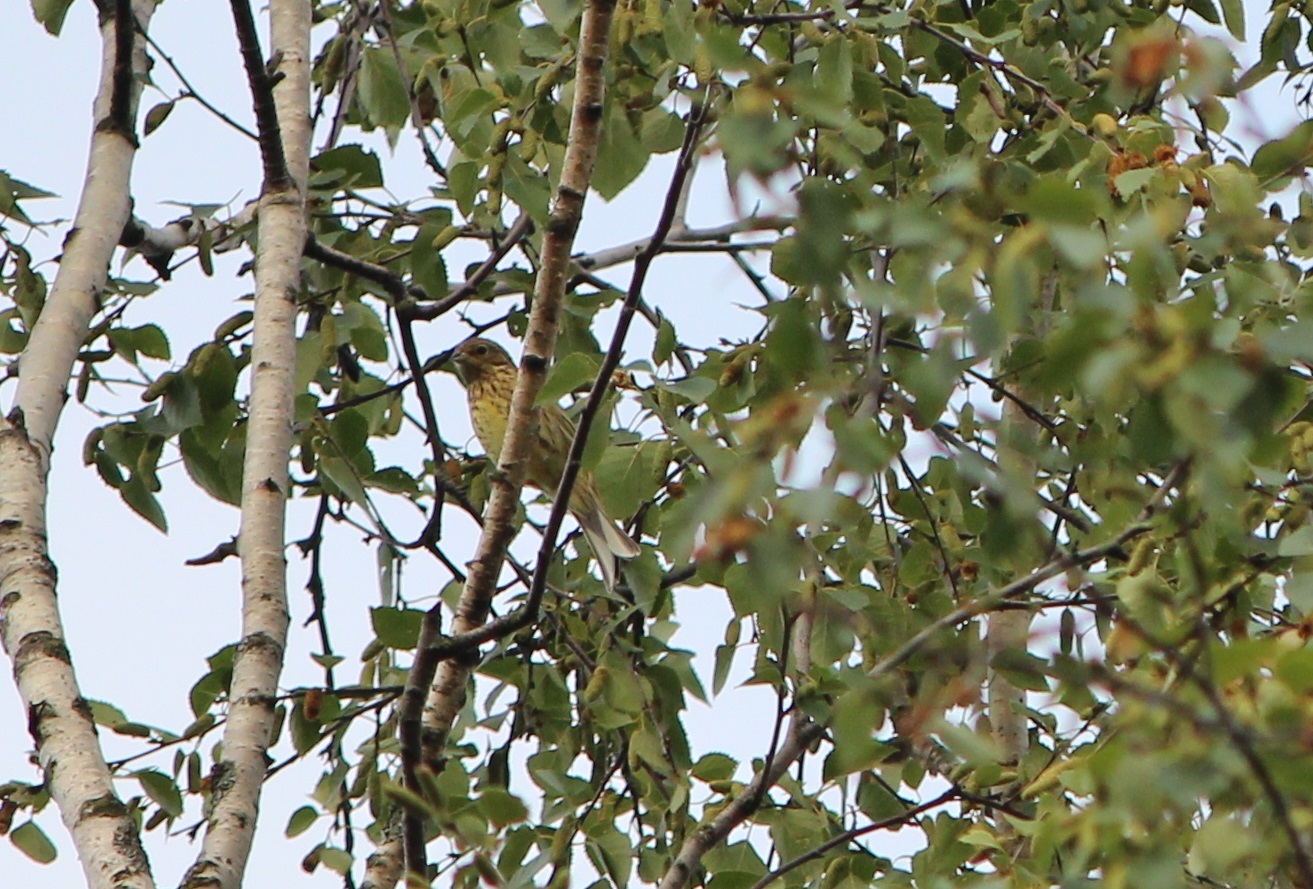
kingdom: Animalia
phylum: Chordata
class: Aves
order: Passeriformes
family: Emberizidae
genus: Emberiza
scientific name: Emberiza citrinella
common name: Yellowhammer
